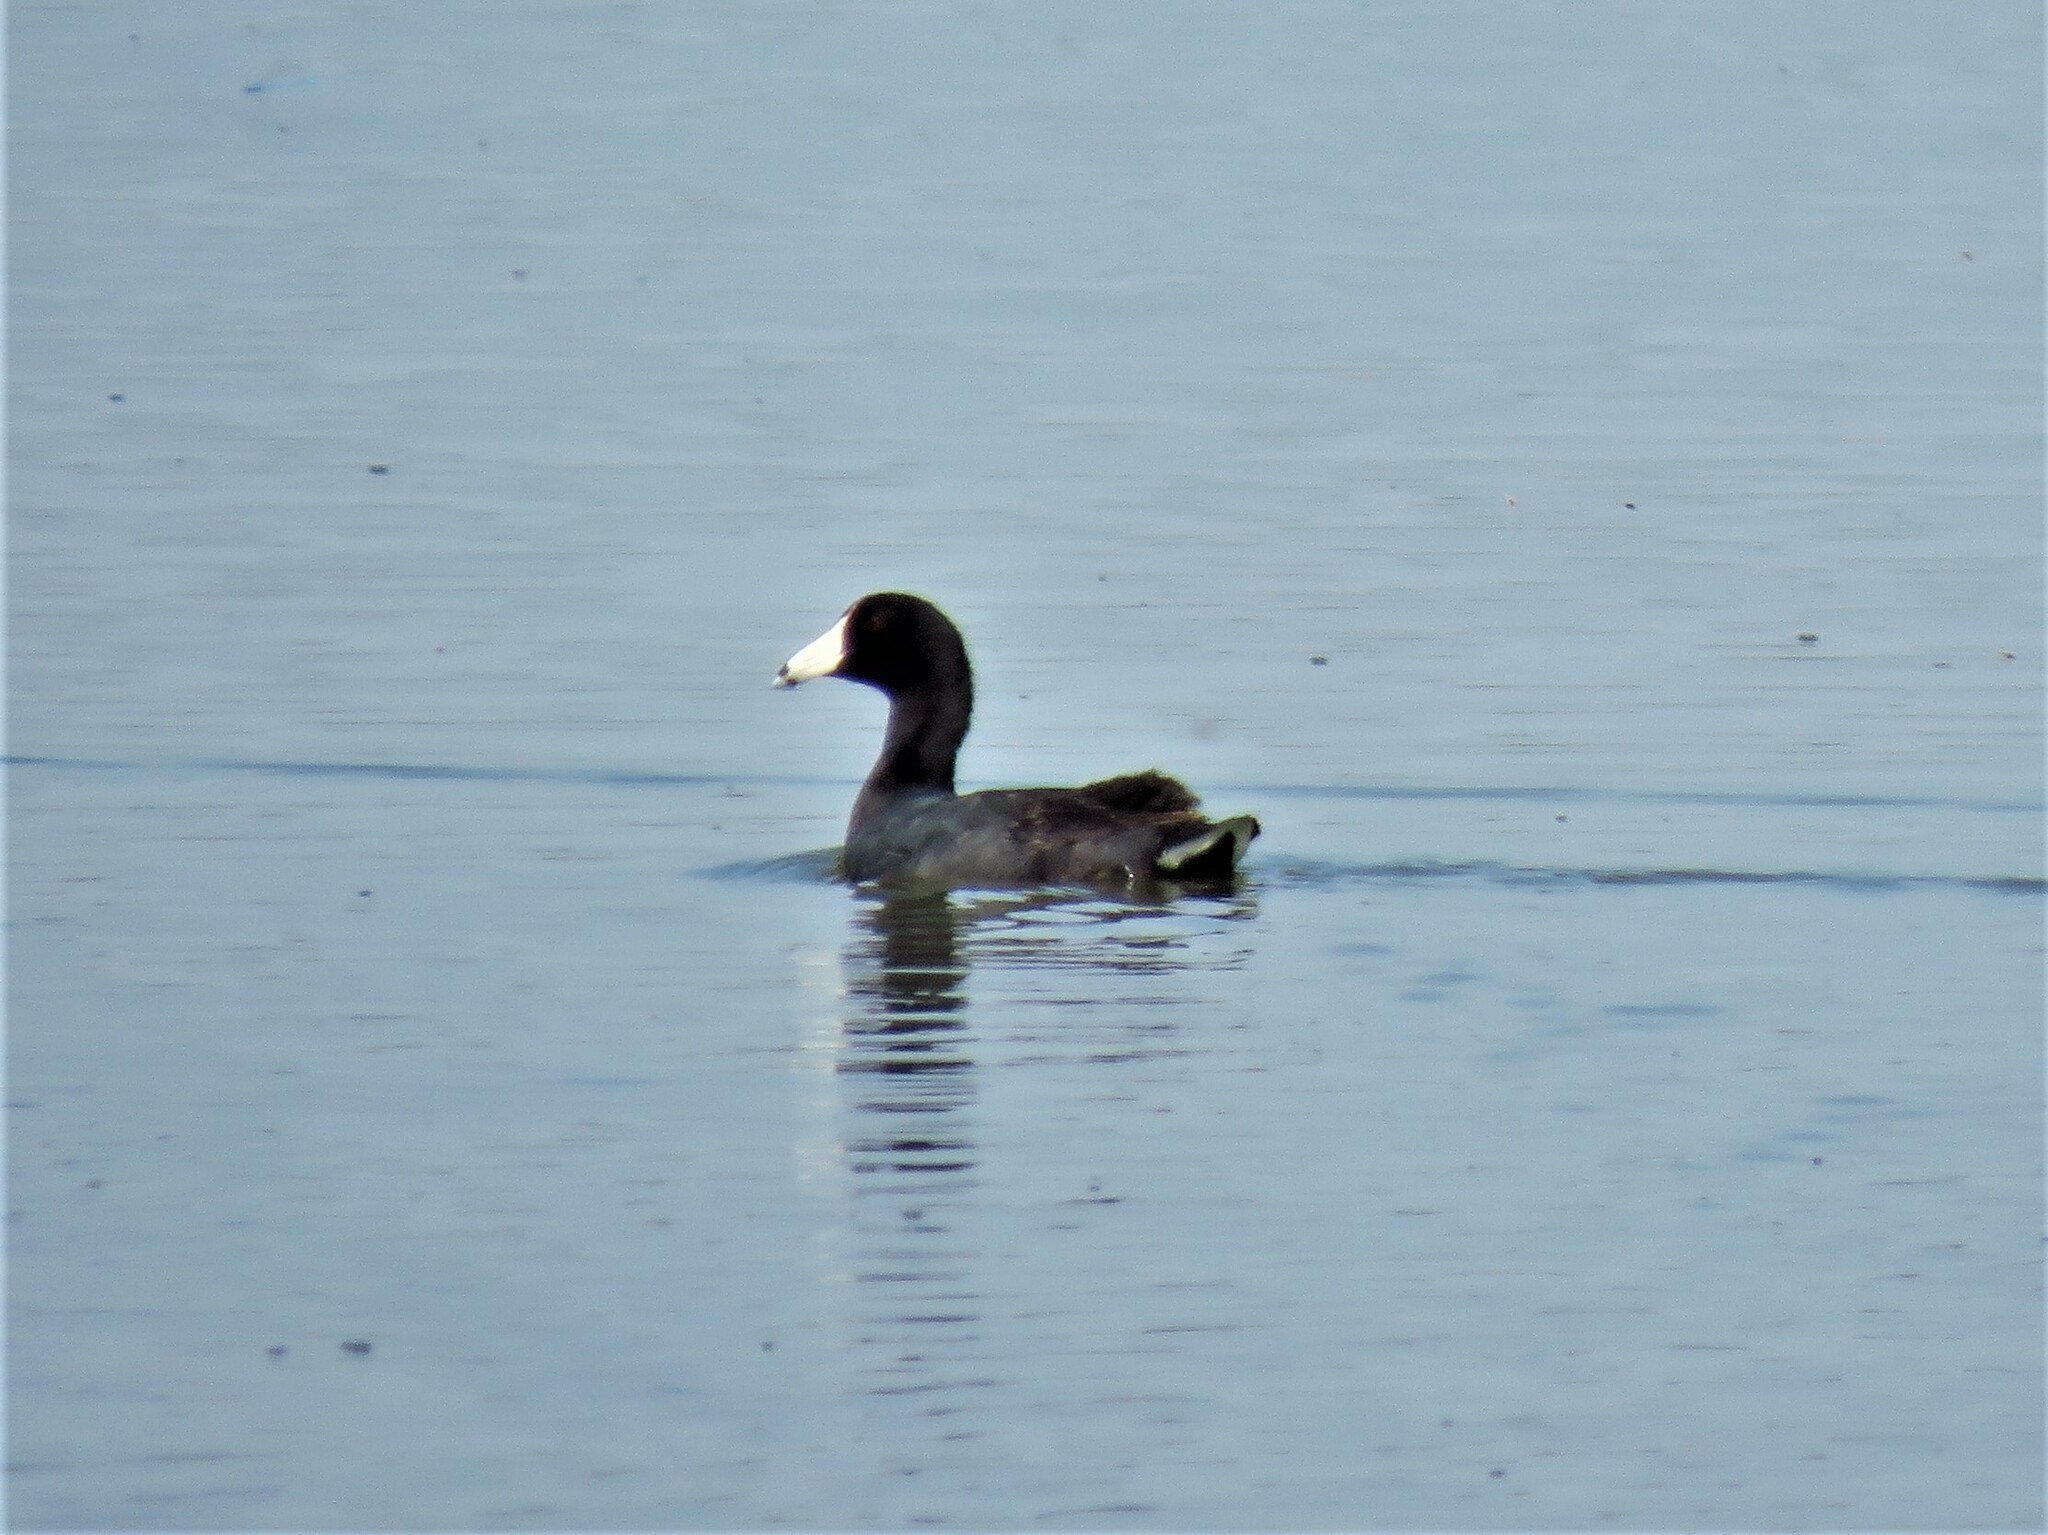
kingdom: Animalia
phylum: Chordata
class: Aves
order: Gruiformes
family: Rallidae
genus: Fulica
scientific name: Fulica americana
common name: American coot
